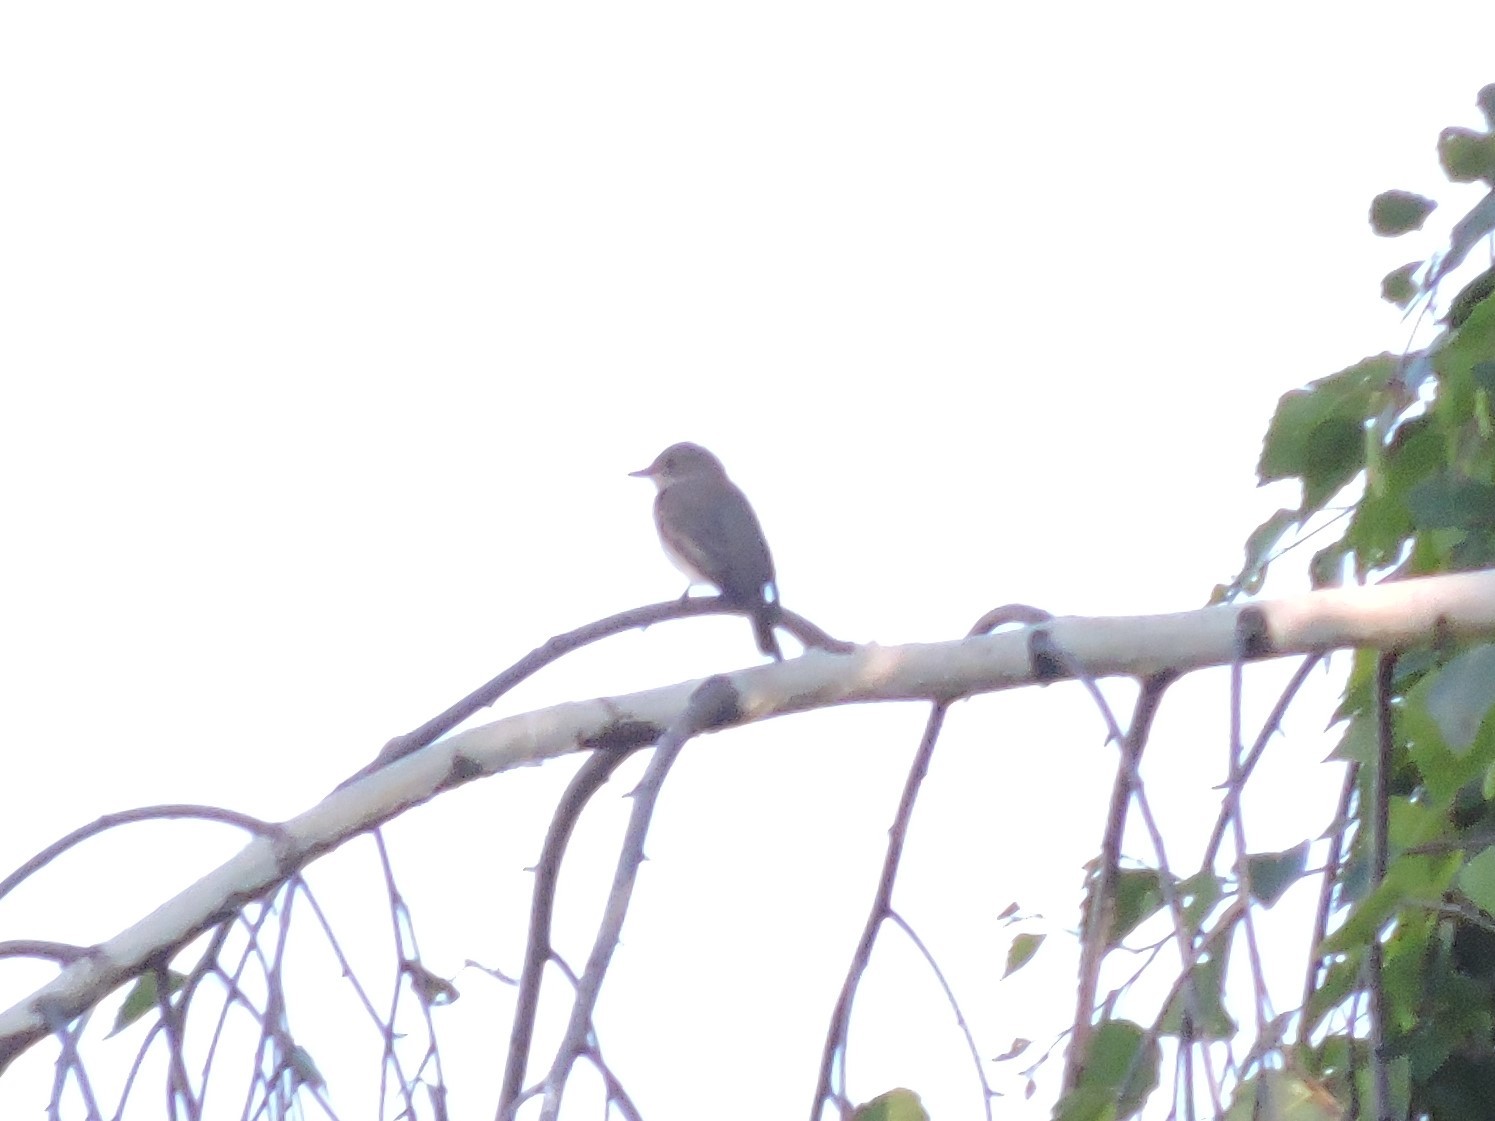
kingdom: Animalia
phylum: Chordata
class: Aves
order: Passeriformes
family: Muscicapidae
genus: Muscicapa
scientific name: Muscicapa striata
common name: Spotted flycatcher
